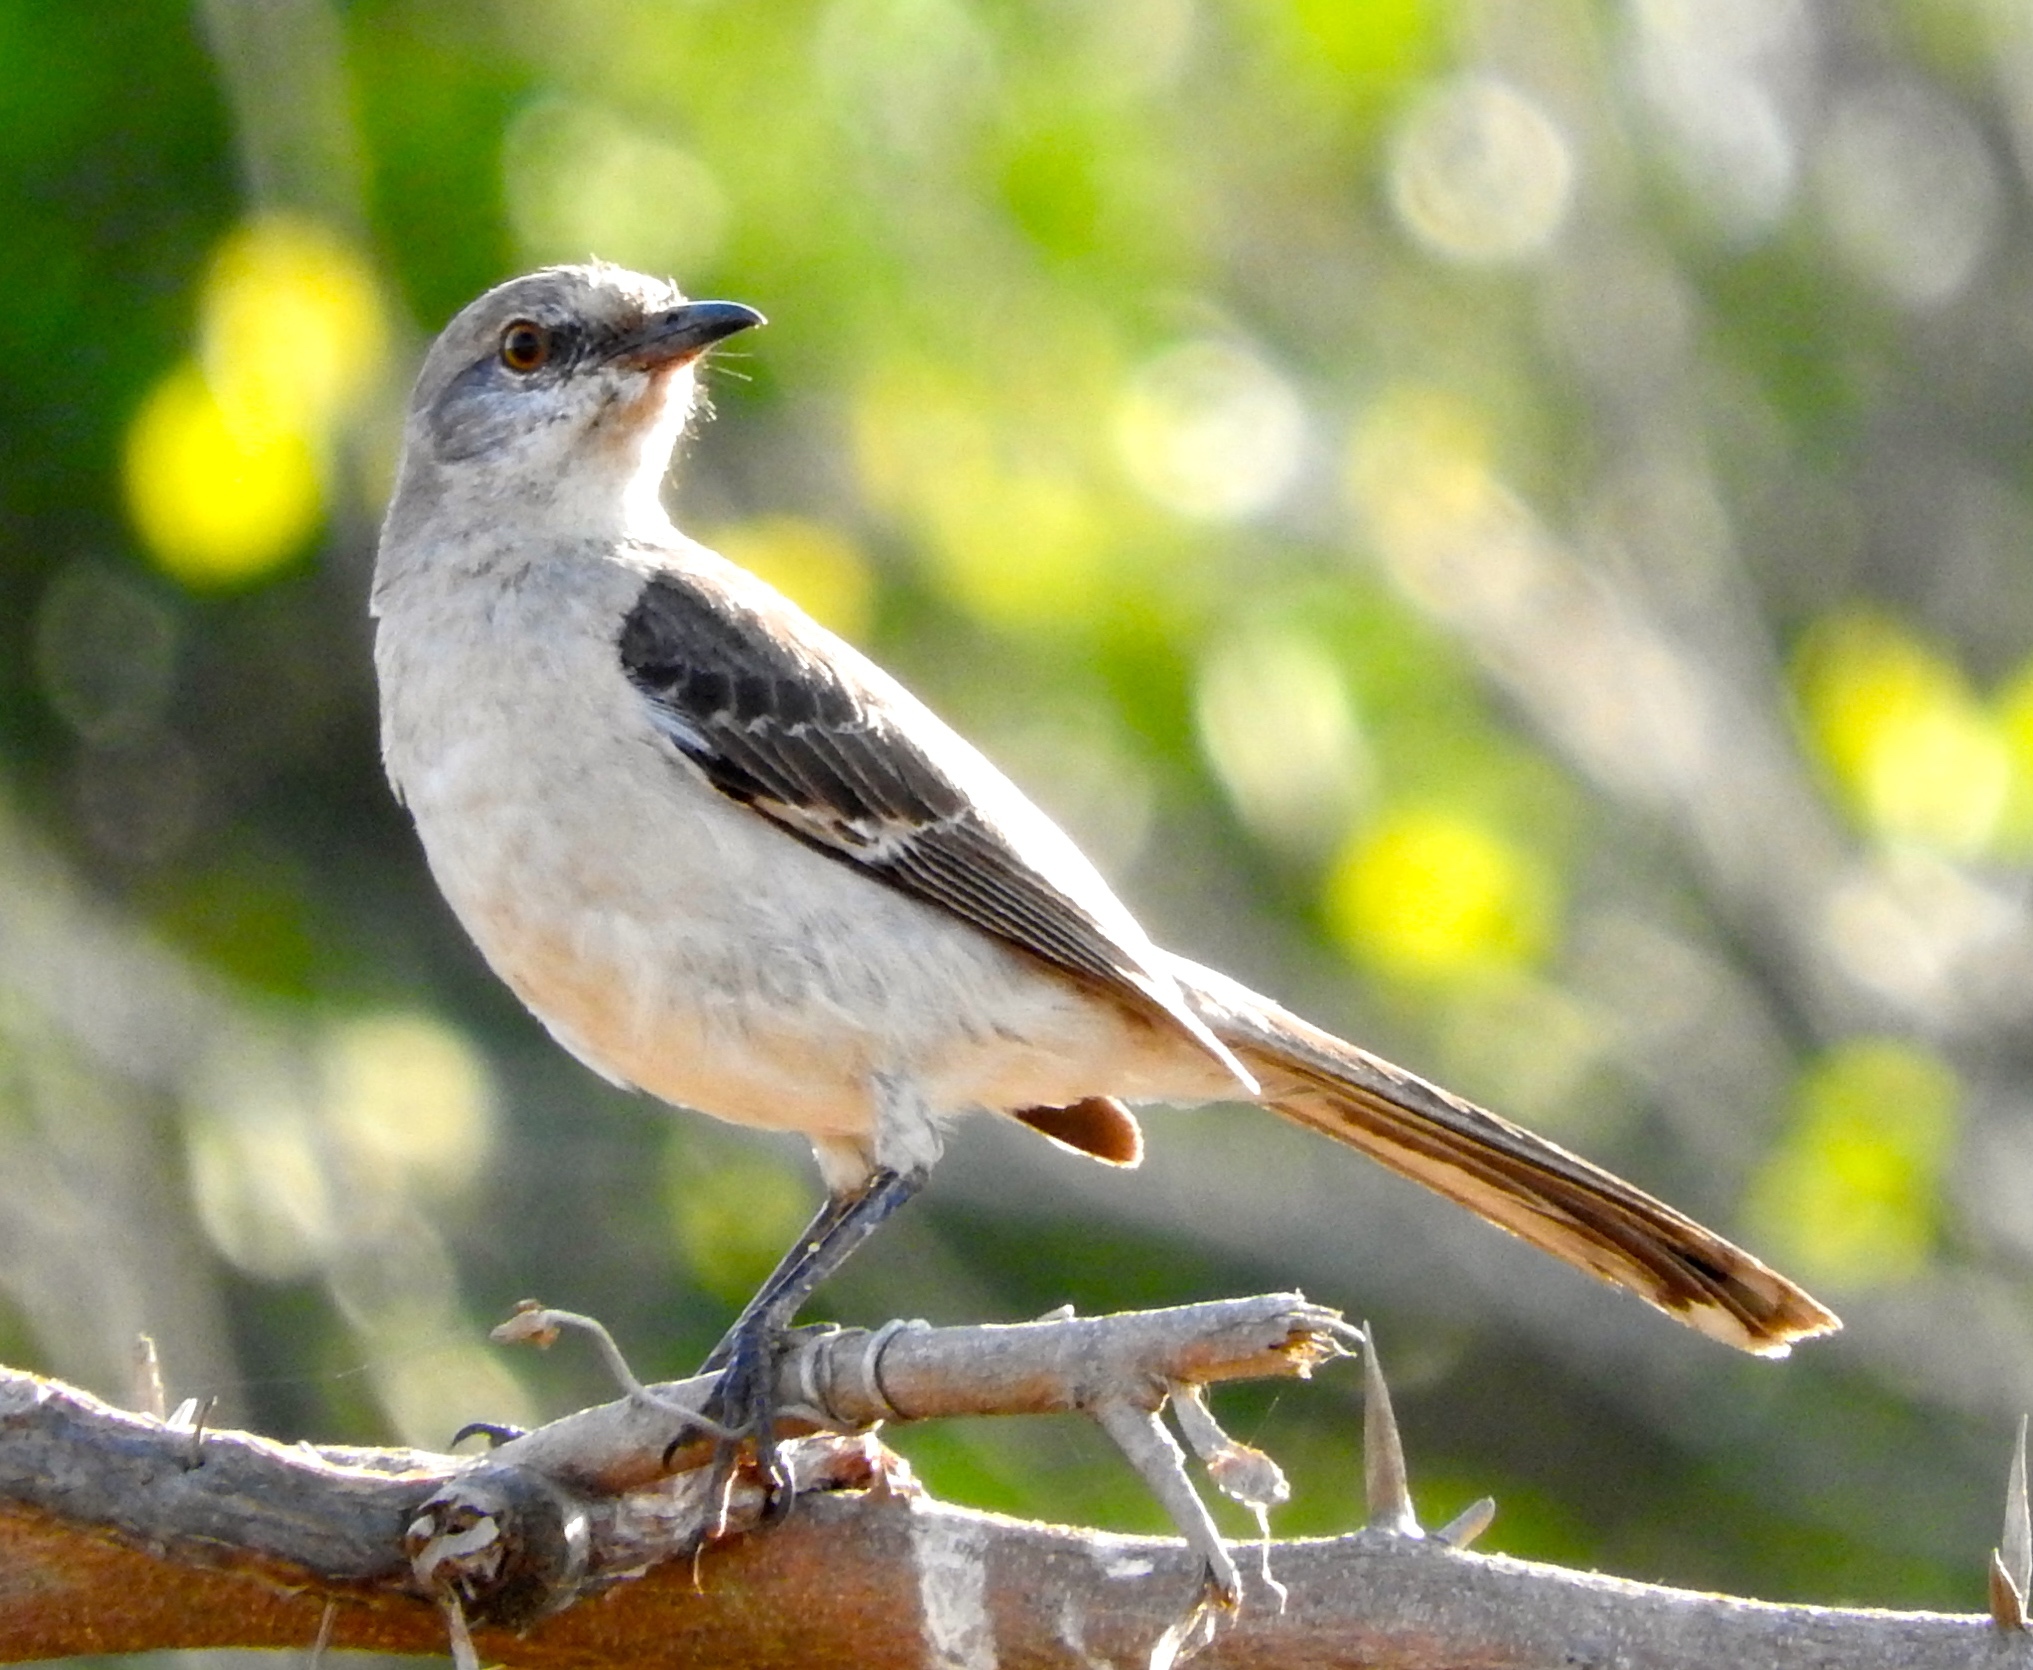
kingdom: Animalia
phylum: Chordata
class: Aves
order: Passeriformes
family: Mimidae
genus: Mimus
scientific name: Mimus polyglottos
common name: Northern mockingbird
